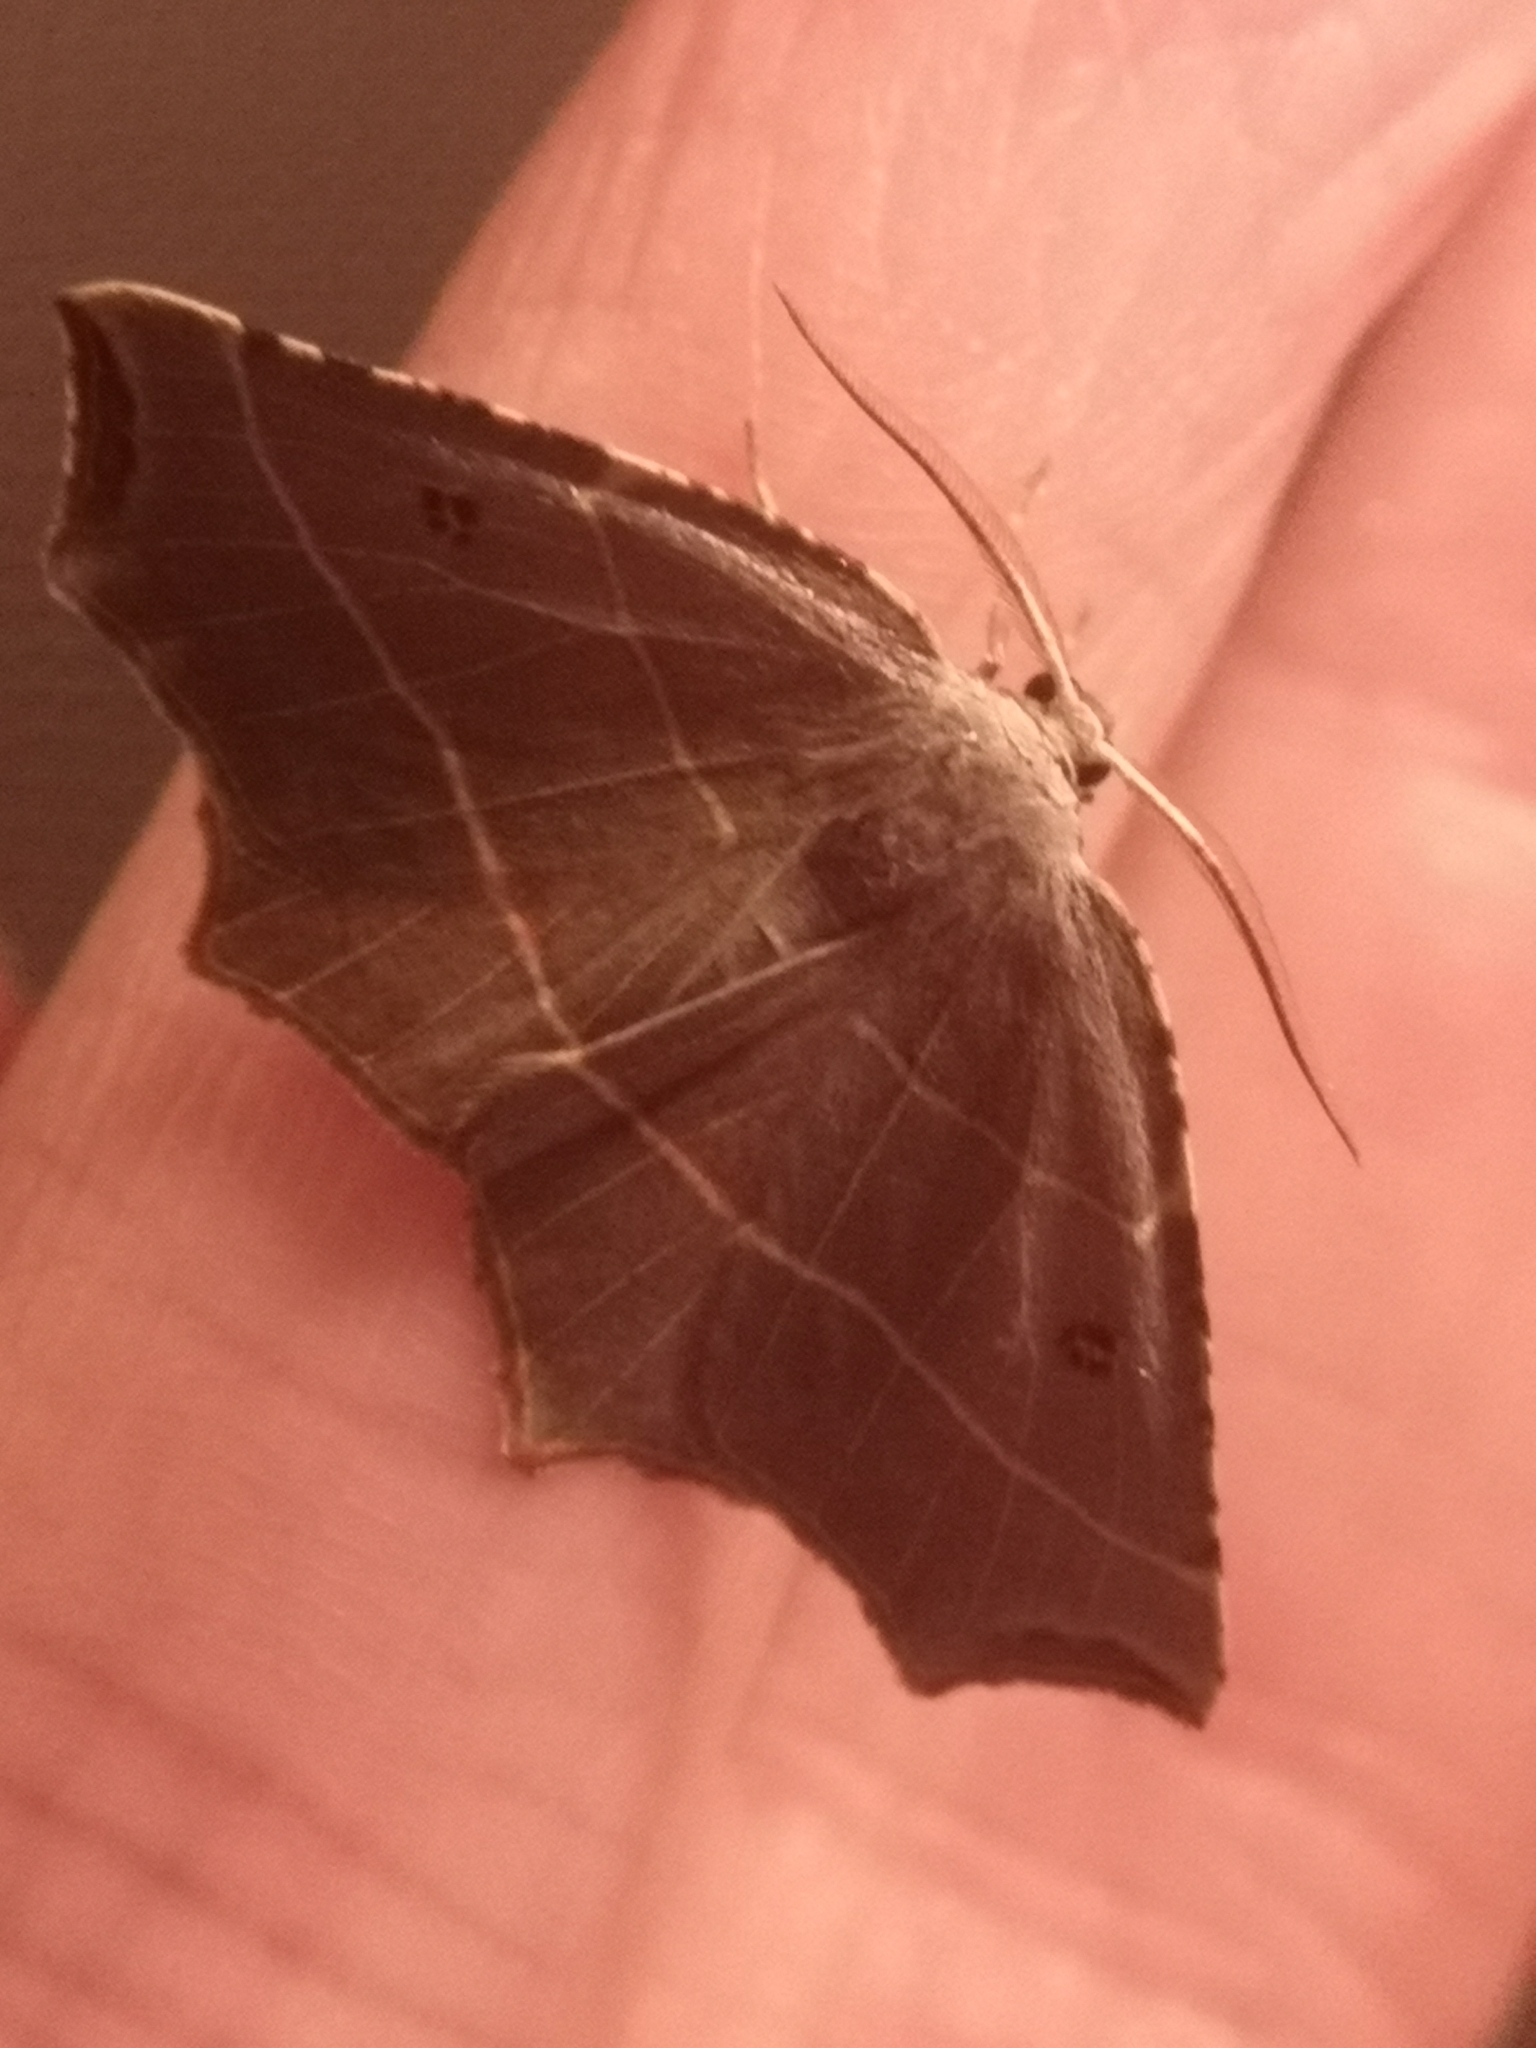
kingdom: Animalia
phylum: Arthropoda
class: Insecta
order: Lepidoptera
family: Geometridae
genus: Metanema
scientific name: Metanema inatomaria
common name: Pale metanema
